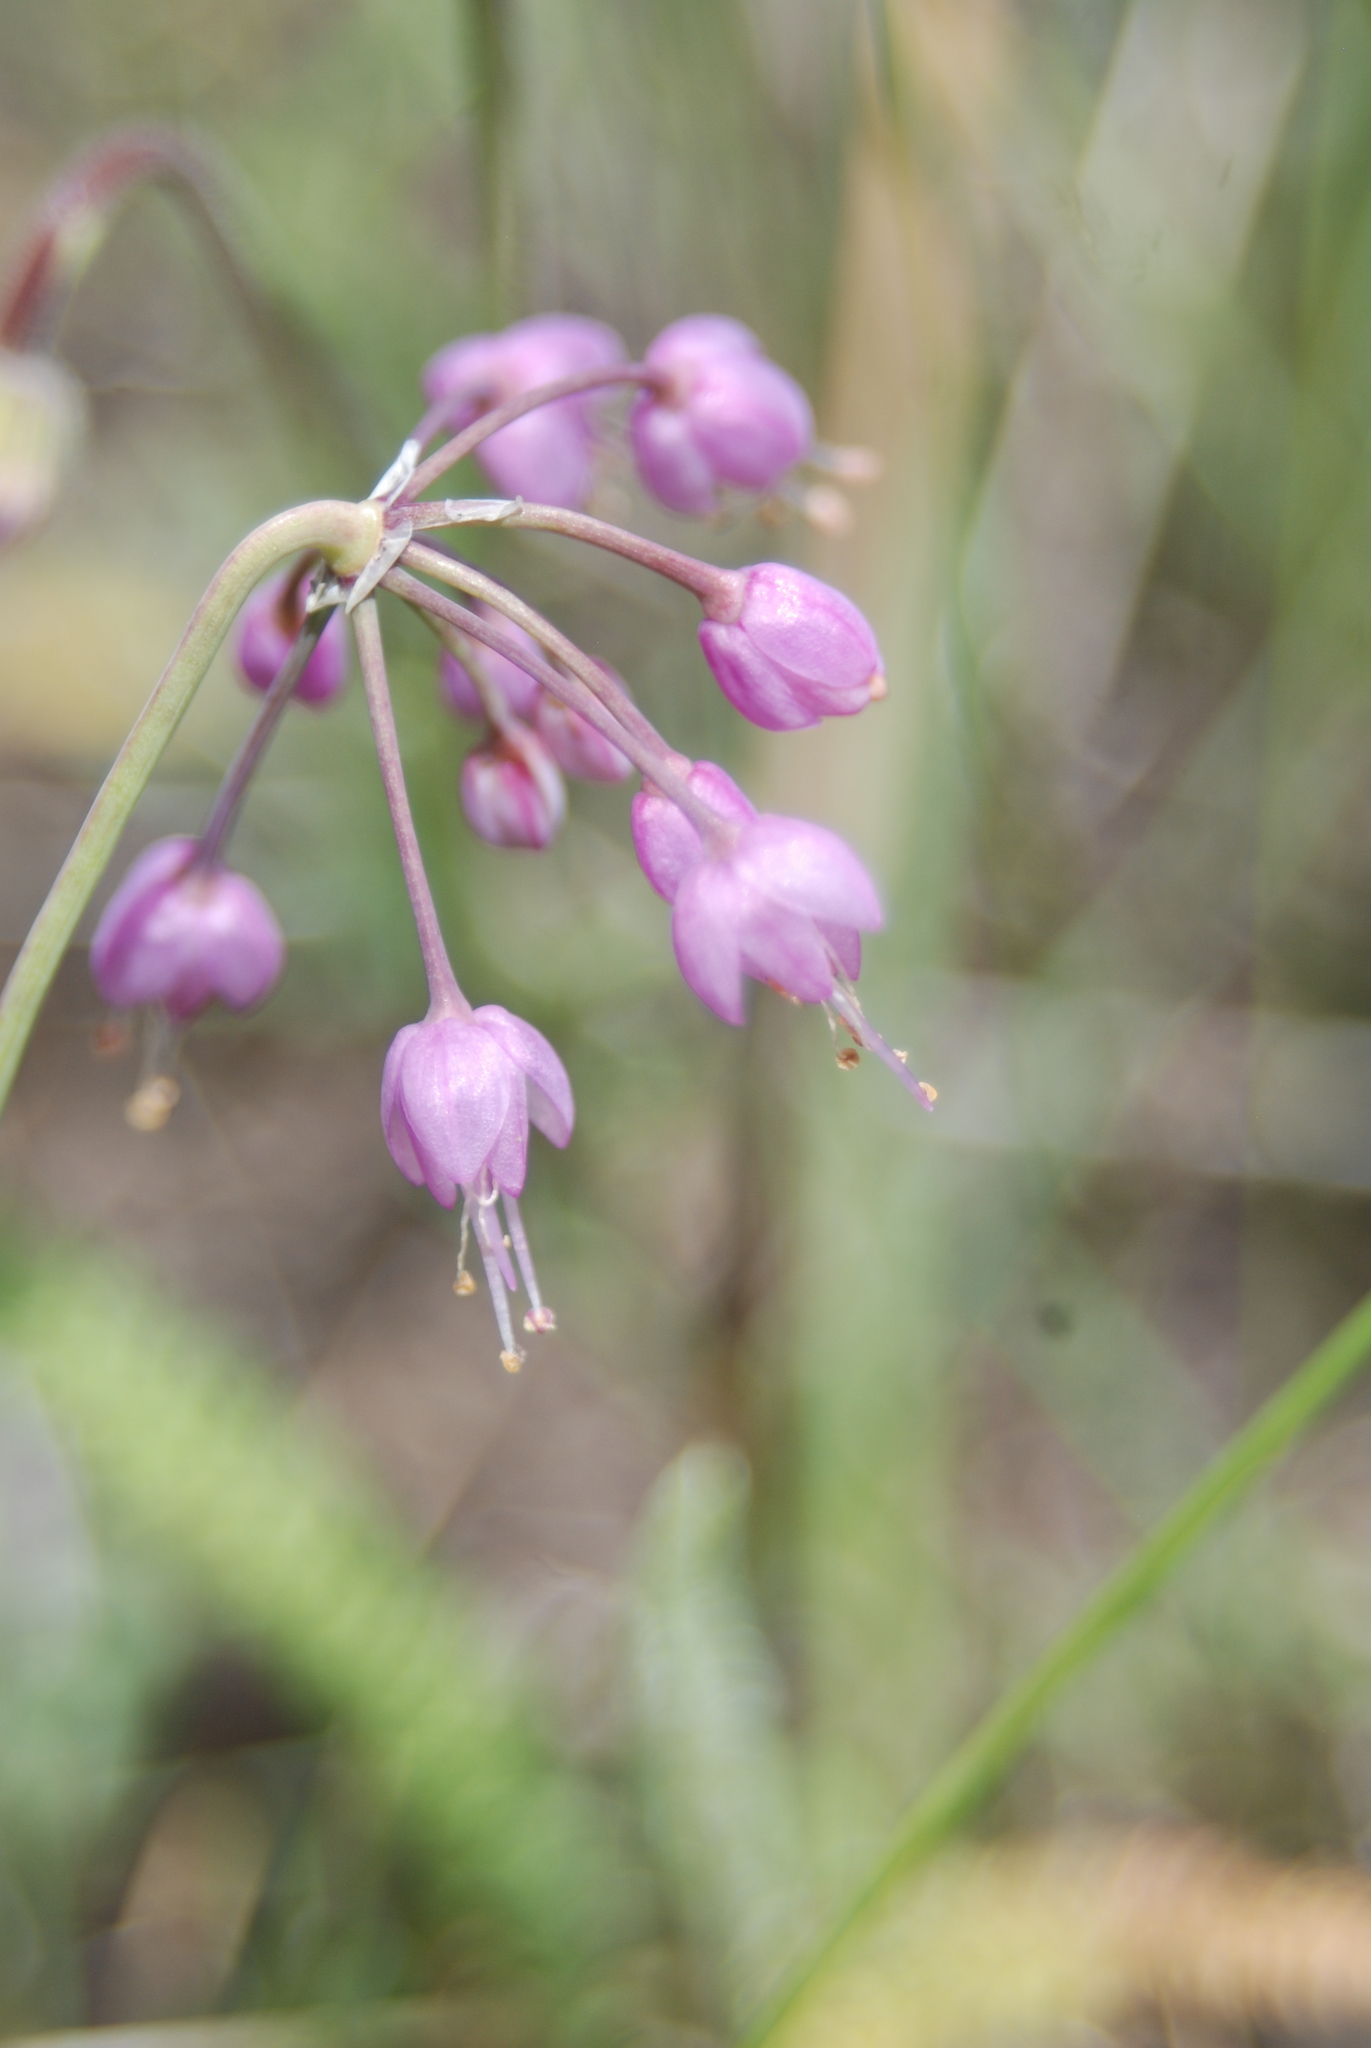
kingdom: Plantae
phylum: Tracheophyta
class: Liliopsida
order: Asparagales
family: Amaryllidaceae
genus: Allium
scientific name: Allium cernuum
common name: Nodding onion
